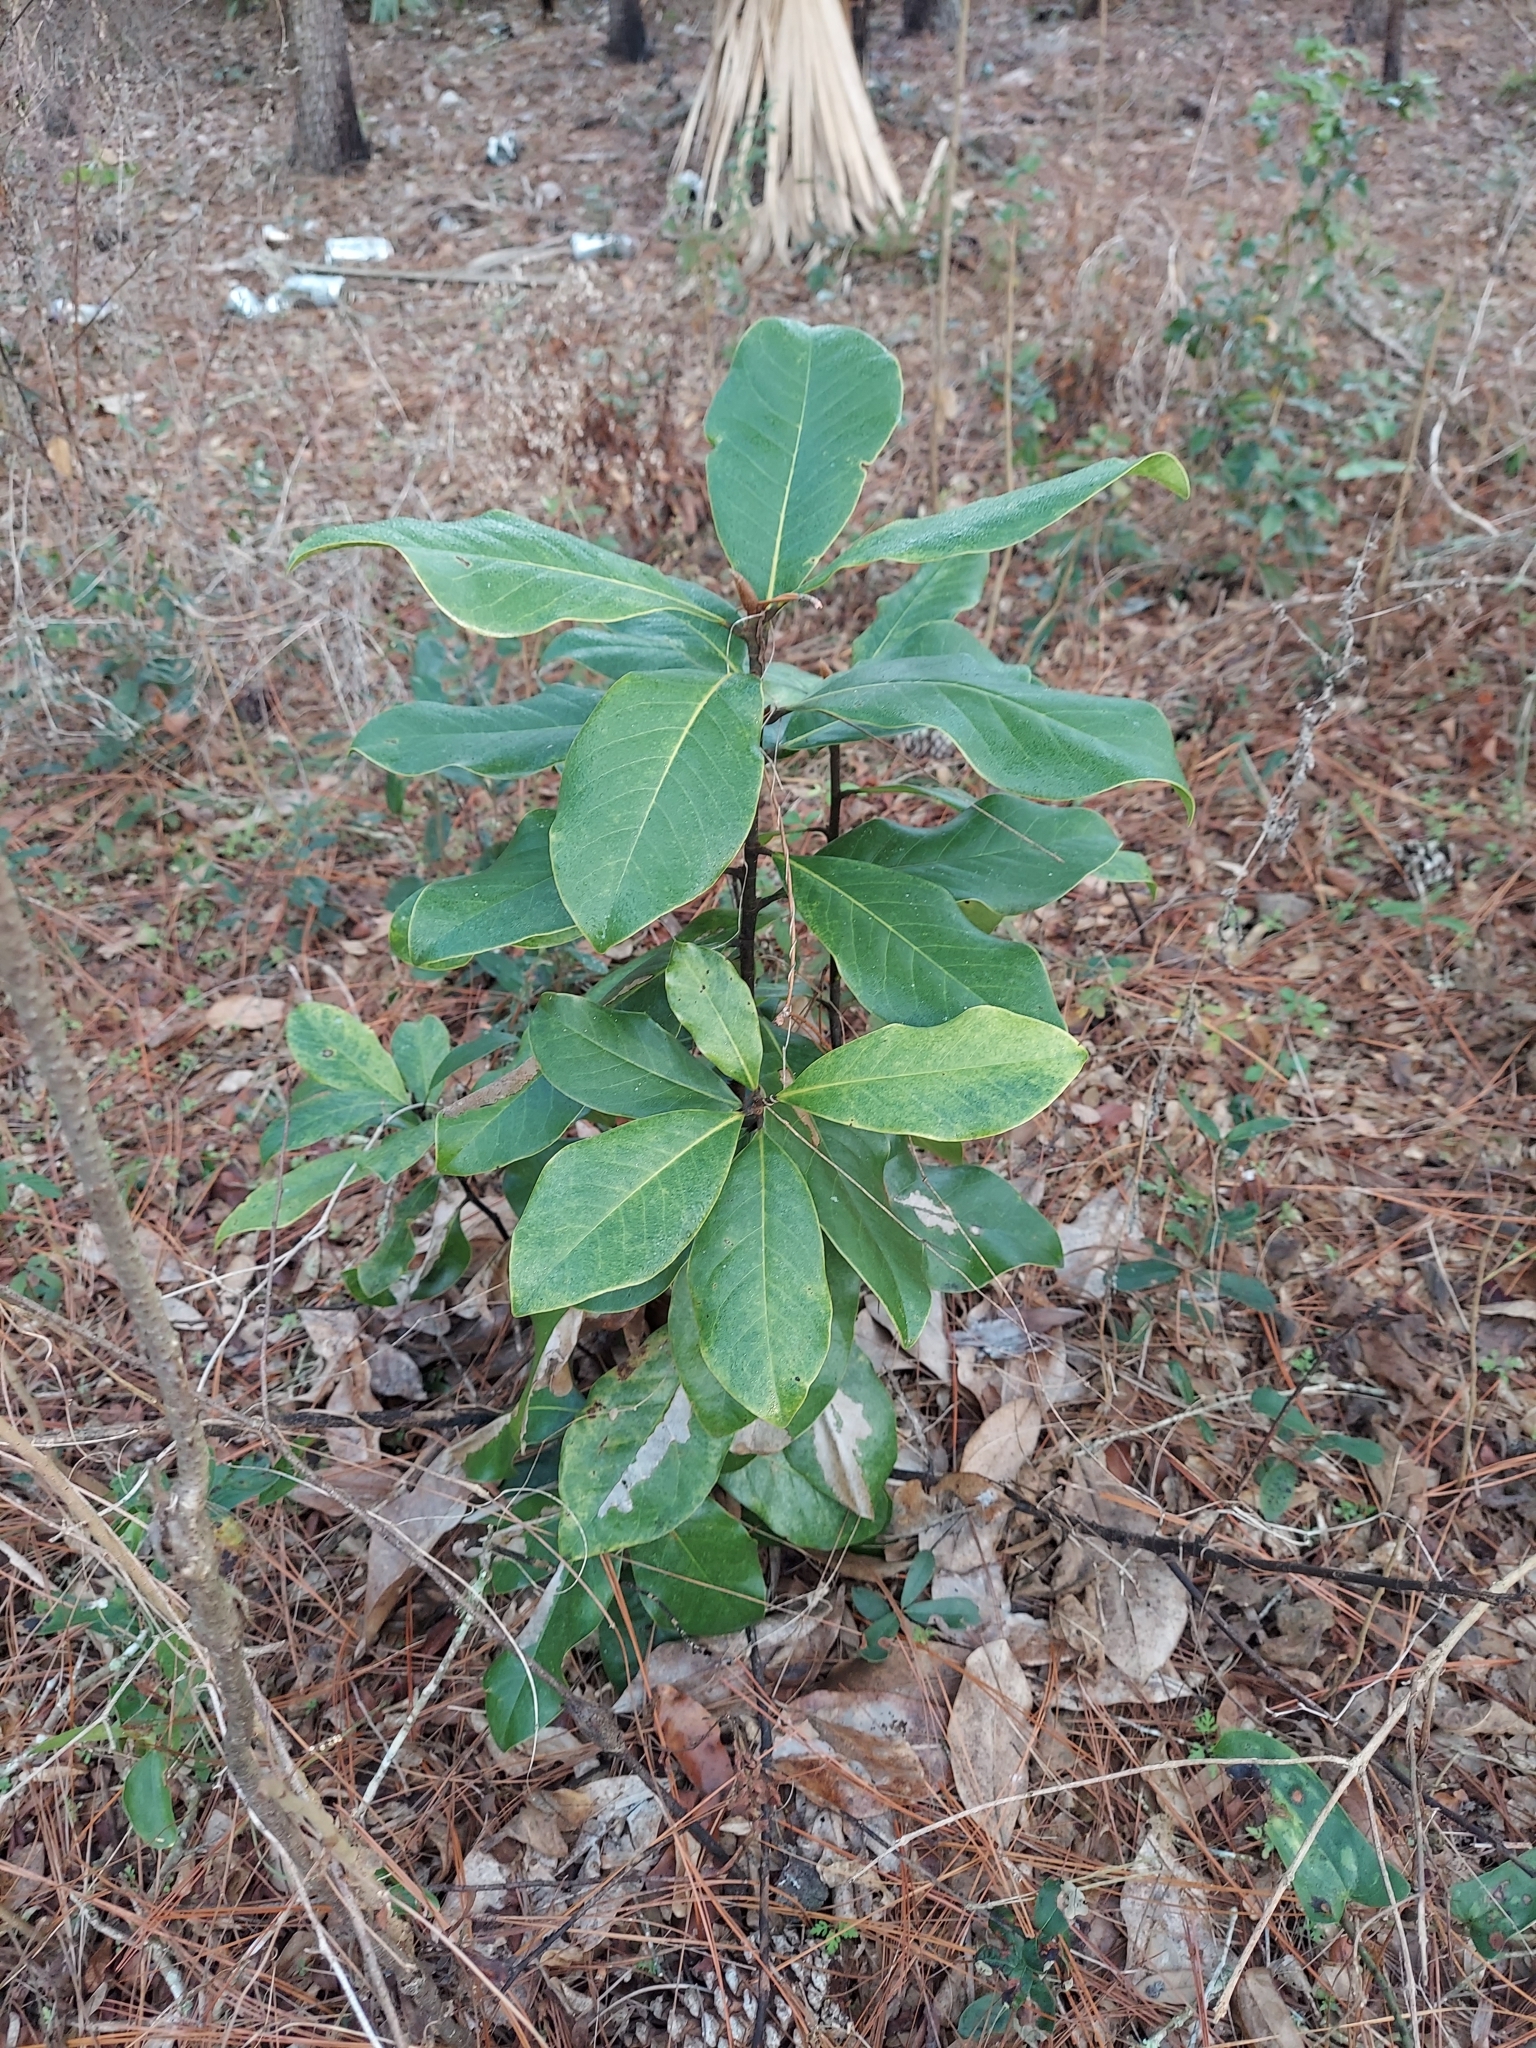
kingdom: Plantae
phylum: Tracheophyta
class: Magnoliopsida
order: Magnoliales
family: Magnoliaceae
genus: Magnolia
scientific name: Magnolia grandiflora
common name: Southern magnolia
